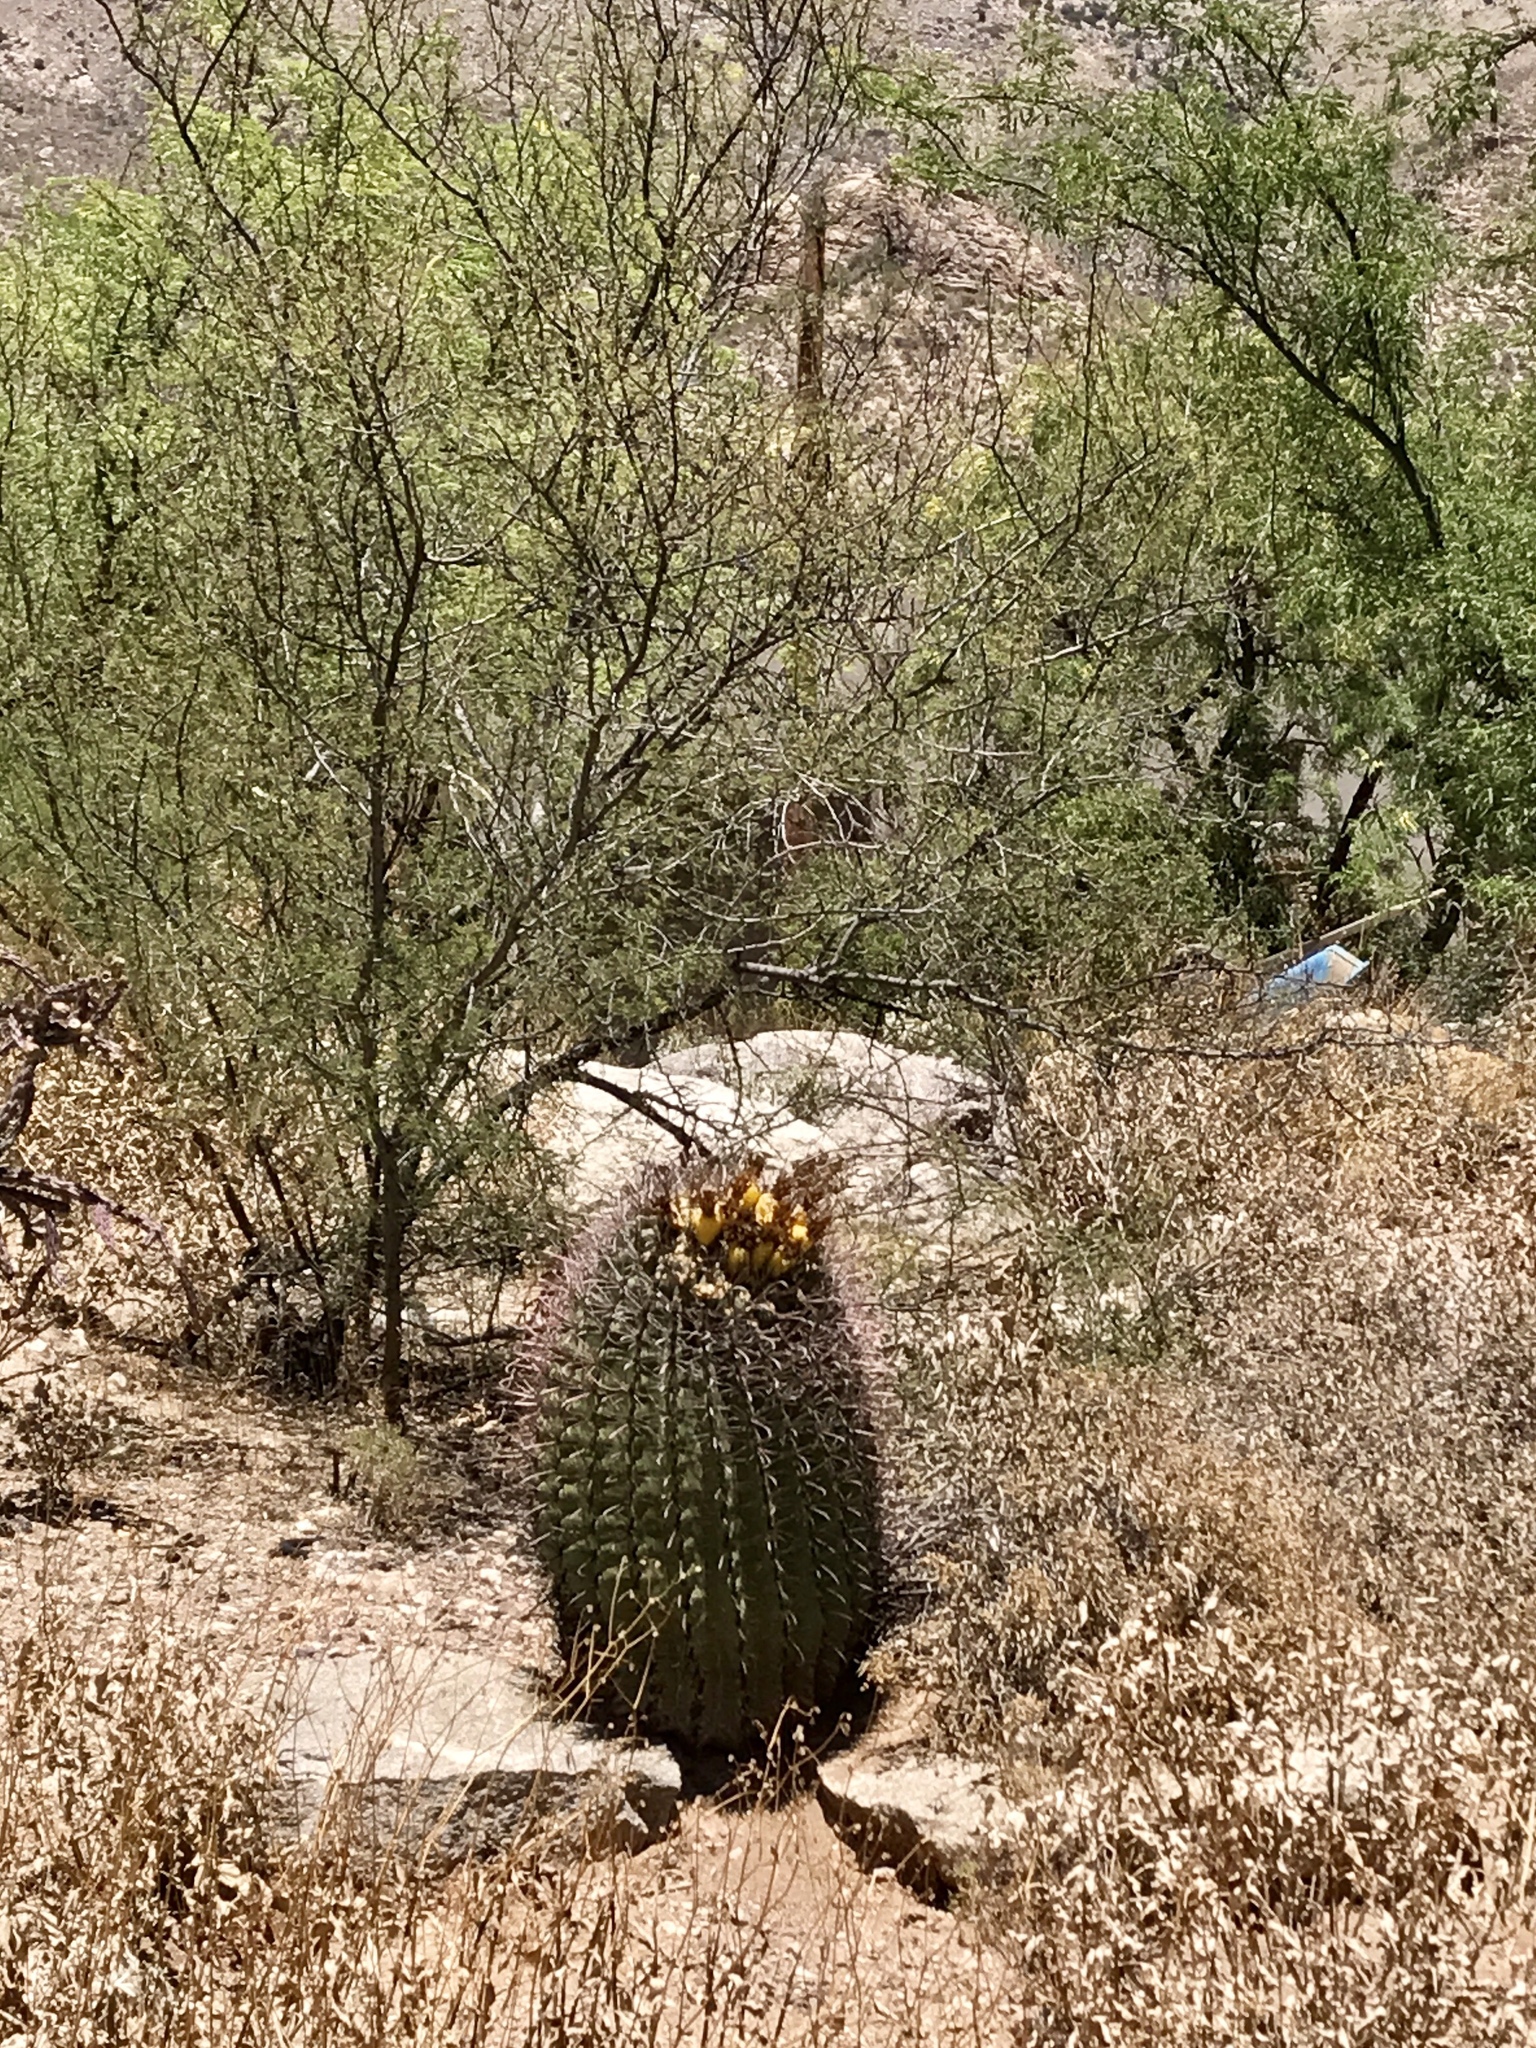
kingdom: Plantae
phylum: Tracheophyta
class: Magnoliopsida
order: Caryophyllales
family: Cactaceae
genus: Ferocactus
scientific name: Ferocactus wislizeni
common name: Candy barrel cactus
